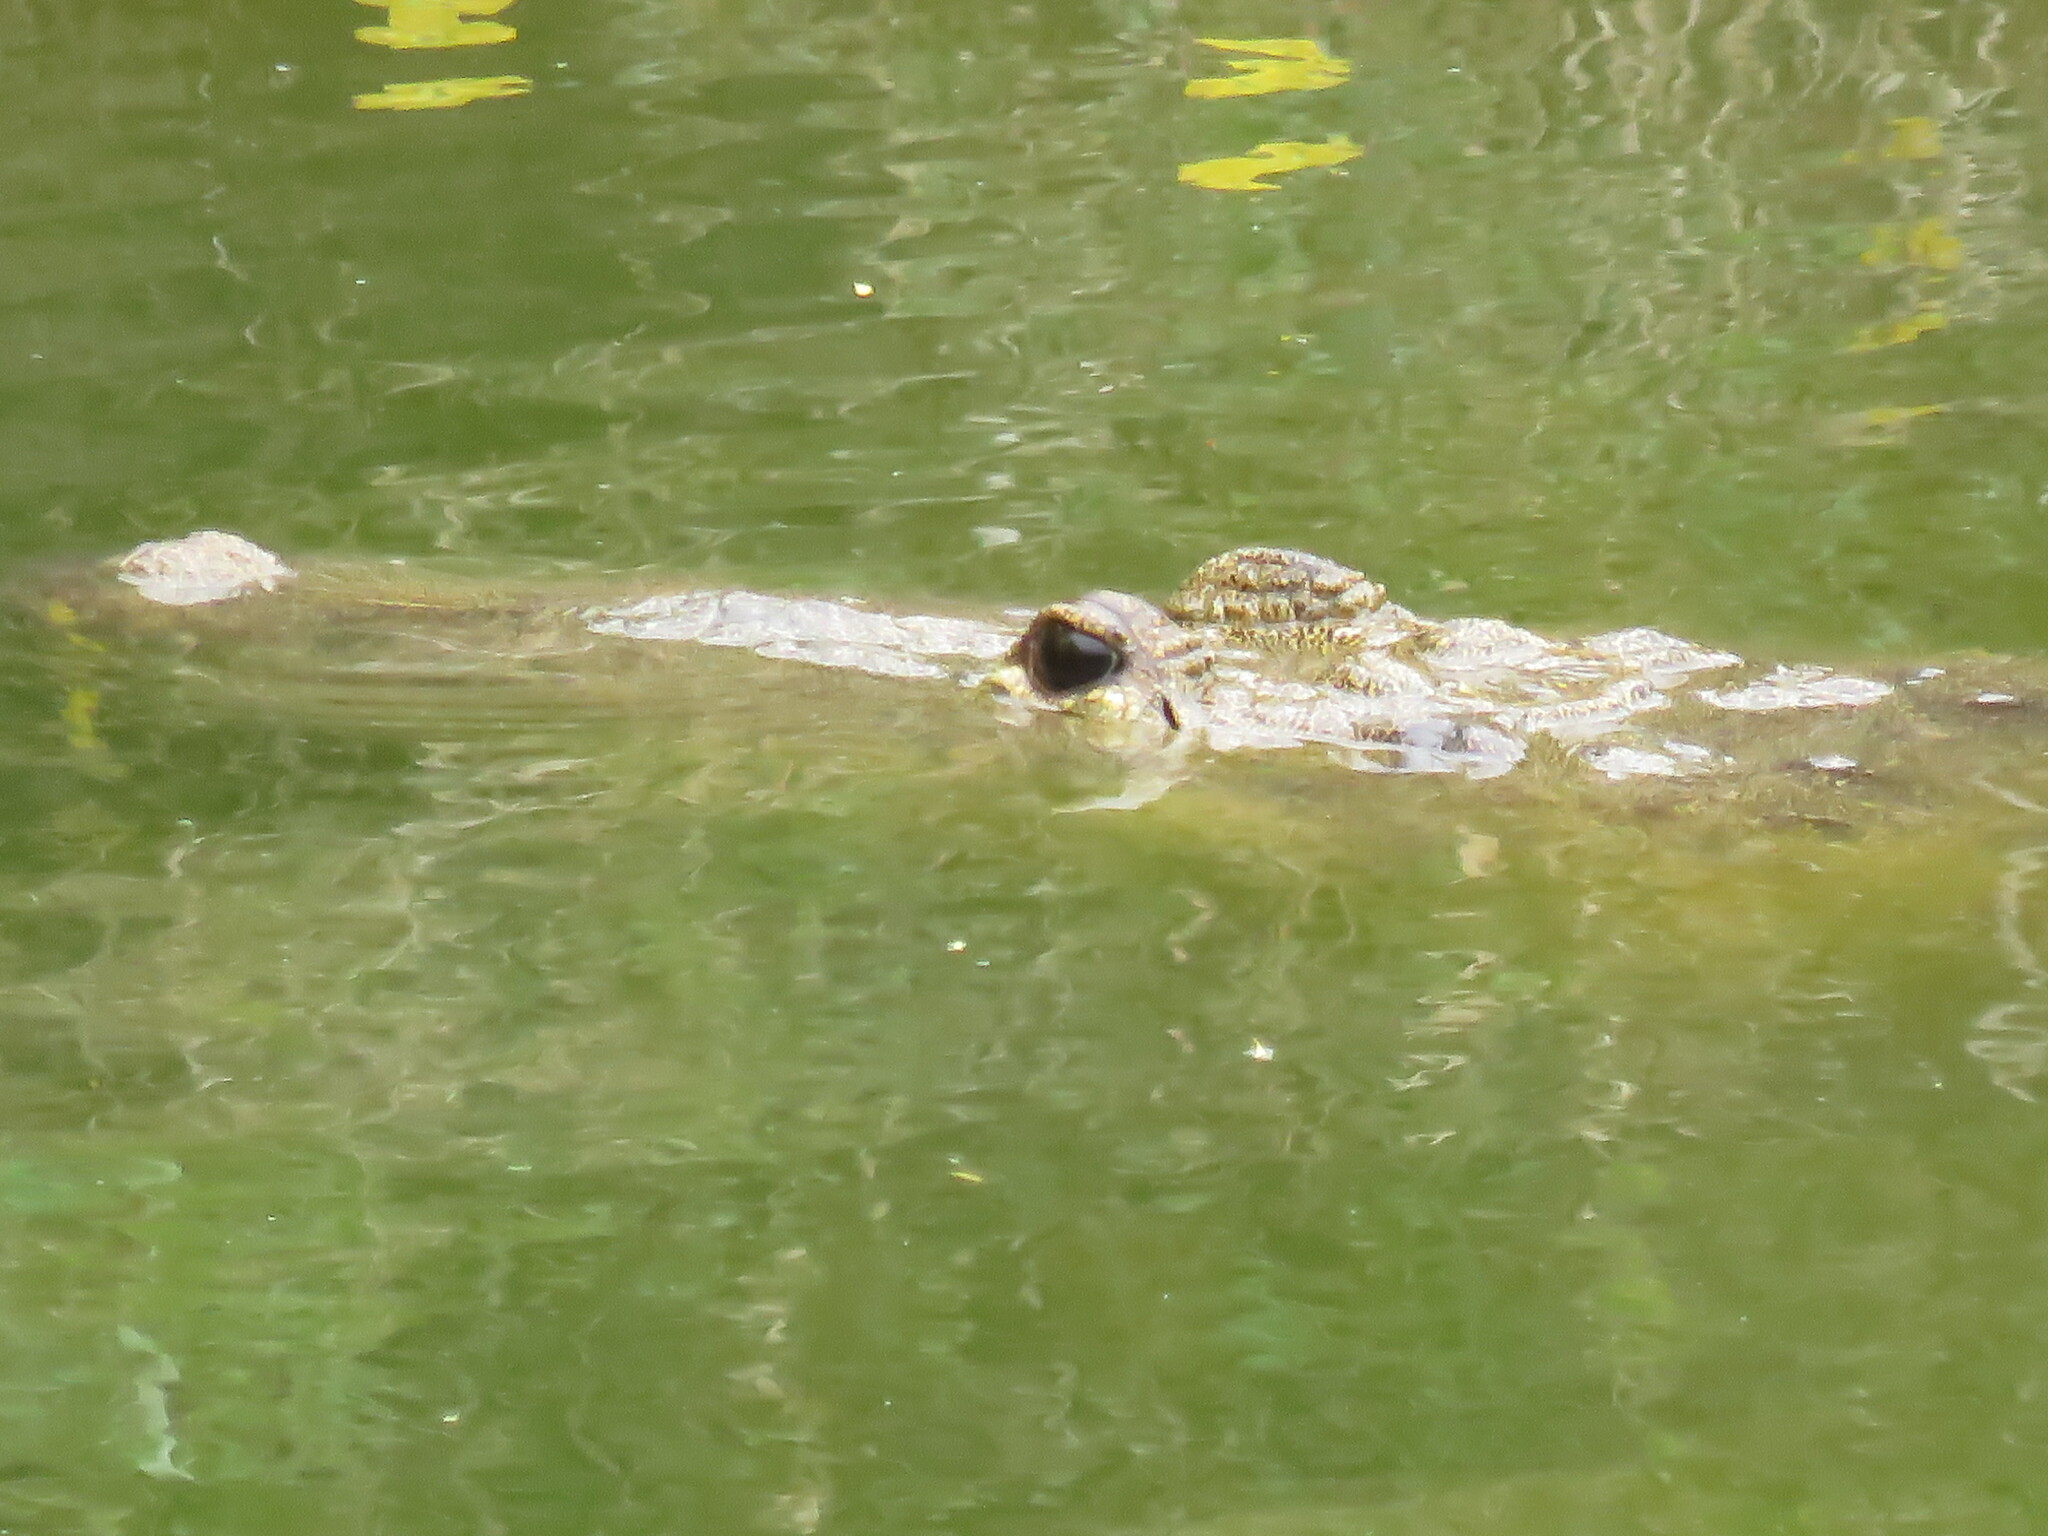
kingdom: Animalia
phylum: Chordata
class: Crocodylia
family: Crocodylidae
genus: Crocodylus
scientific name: Crocodylus moreletii
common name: Morelet's crocodile
